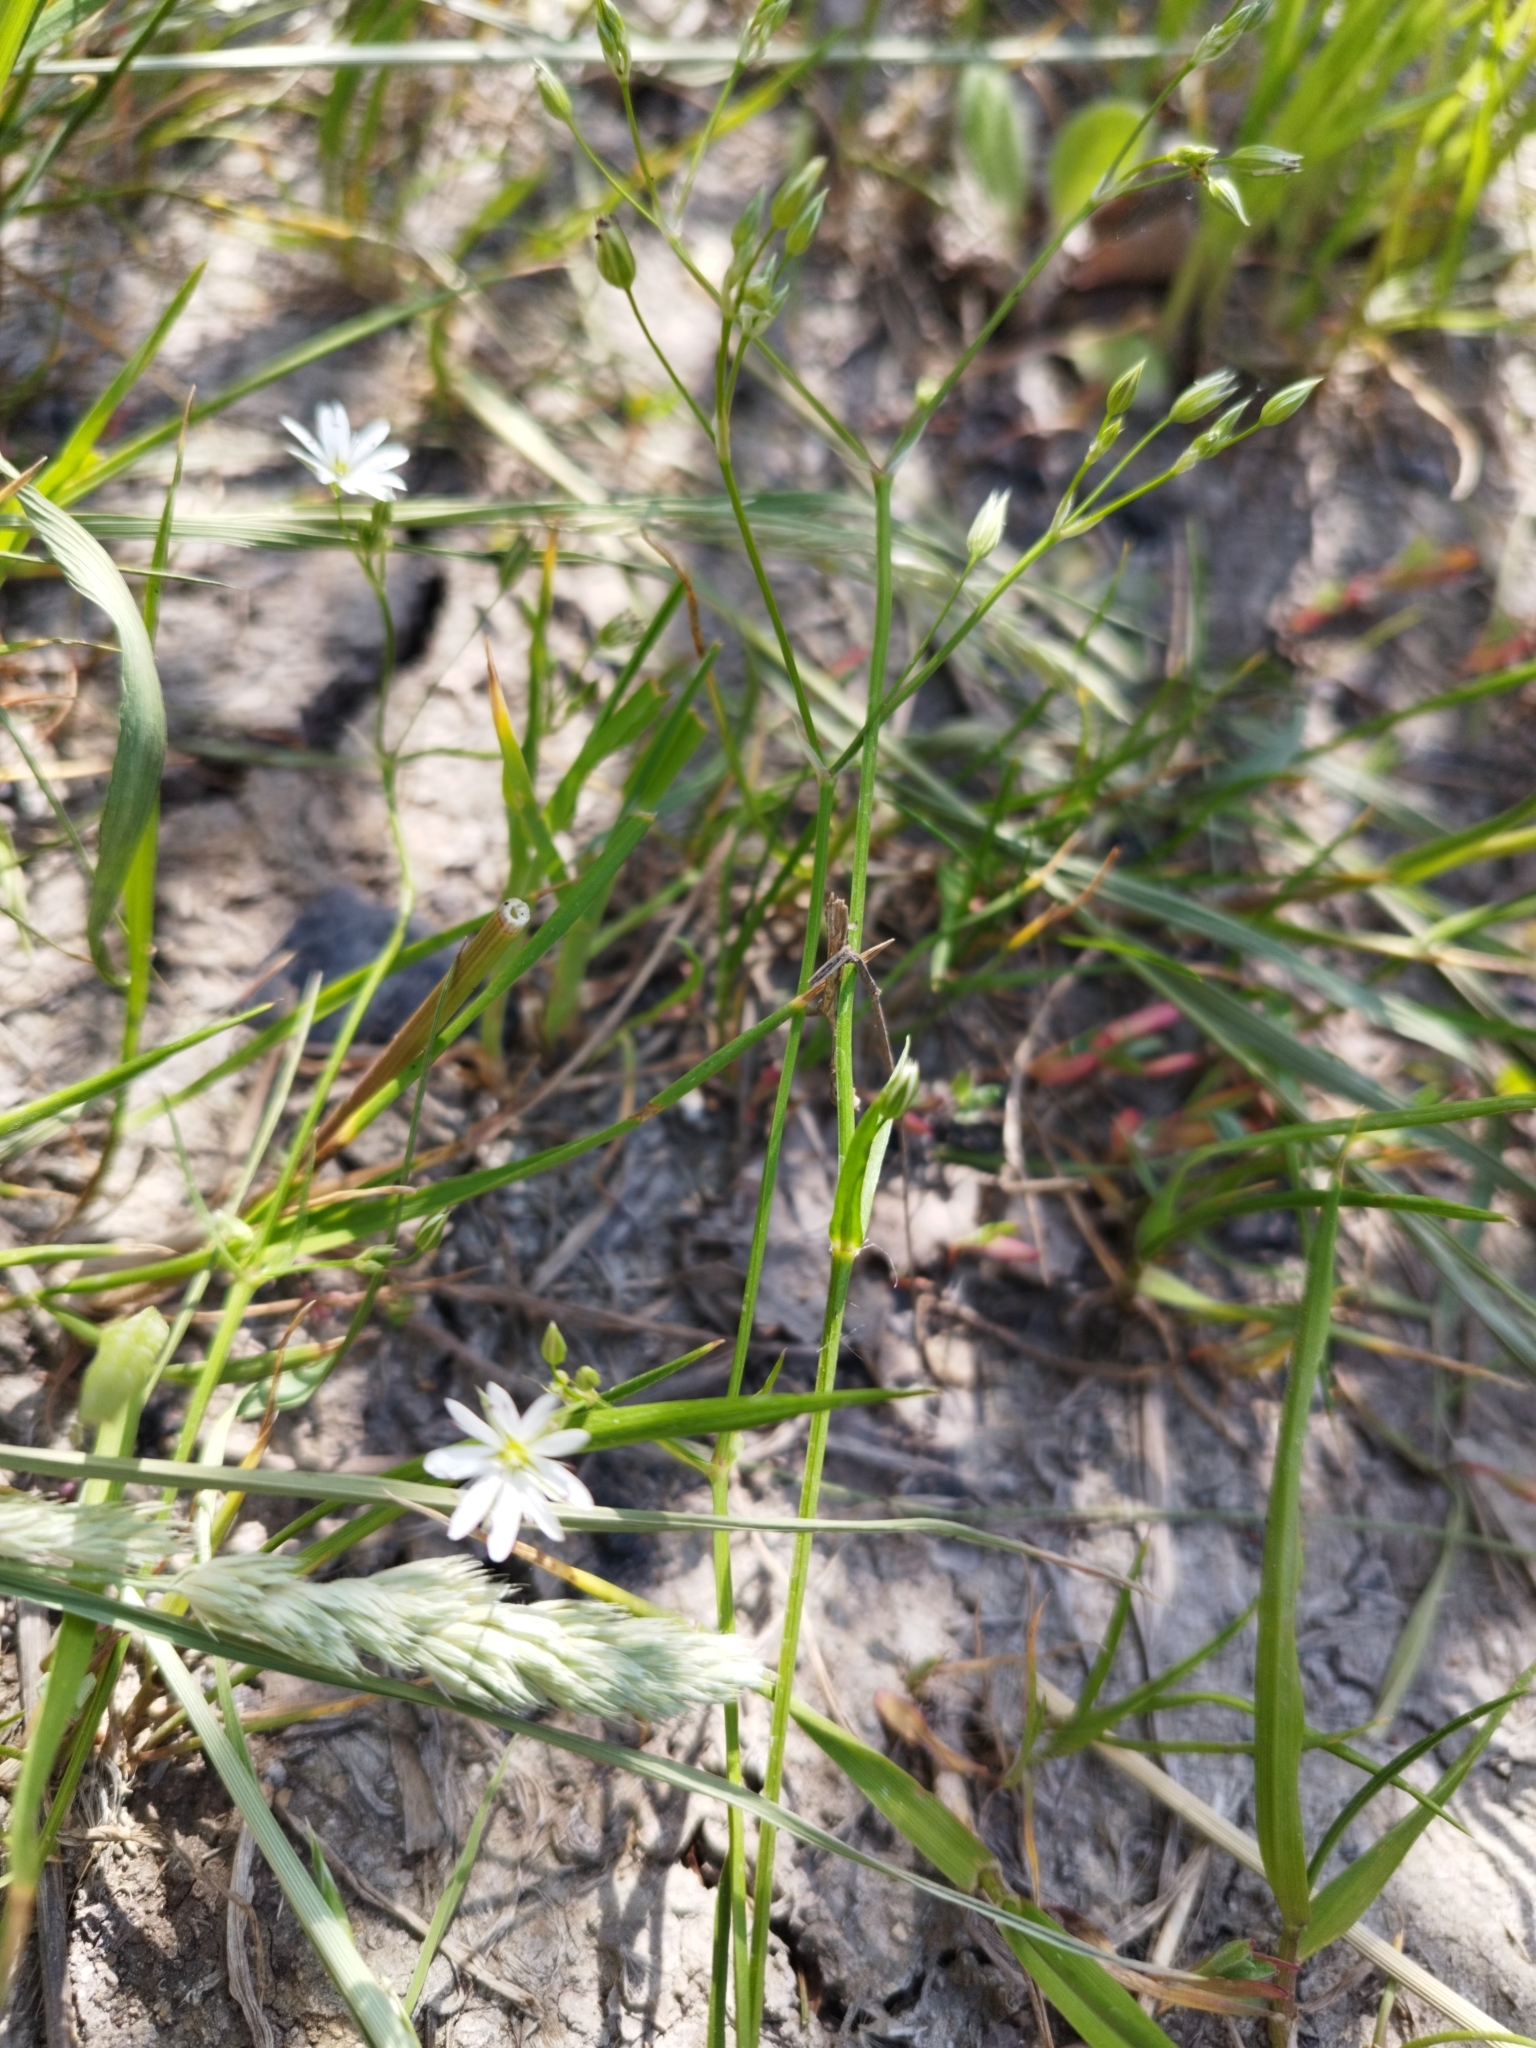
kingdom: Plantae
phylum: Tracheophyta
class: Magnoliopsida
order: Caryophyllales
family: Caryophyllaceae
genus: Stellaria
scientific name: Stellaria graminea
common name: Grass-like starwort
